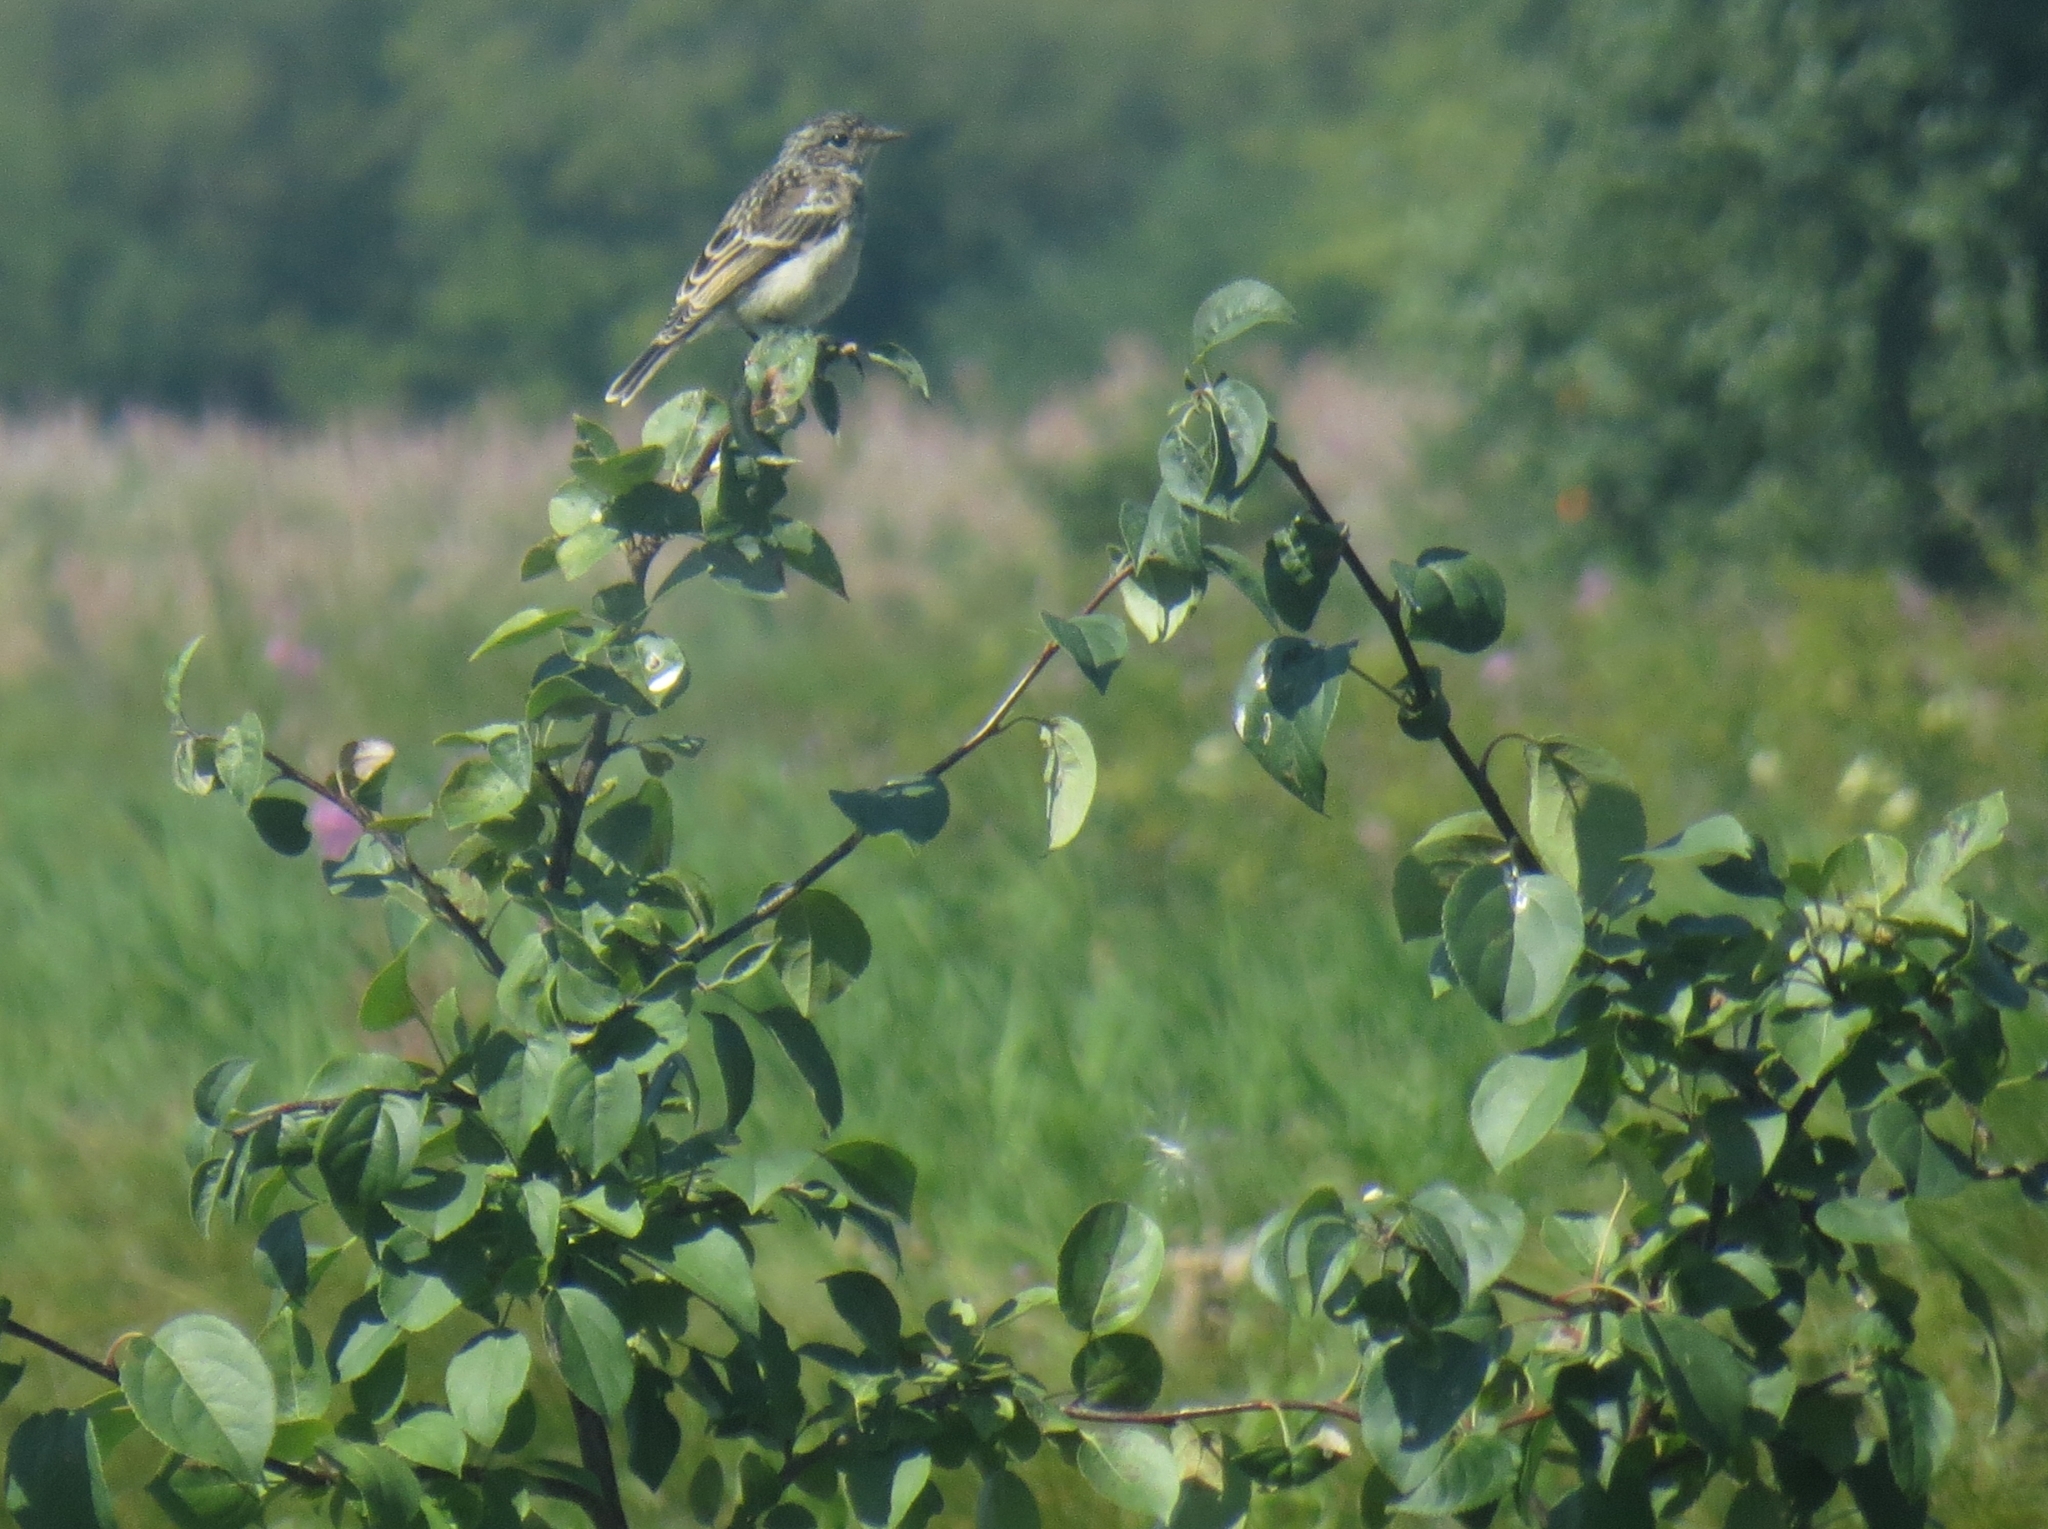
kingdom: Animalia
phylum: Chordata
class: Aves
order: Passeriformes
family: Muscicapidae
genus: Saxicola
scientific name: Saxicola maurus
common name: Siberian stonechat
